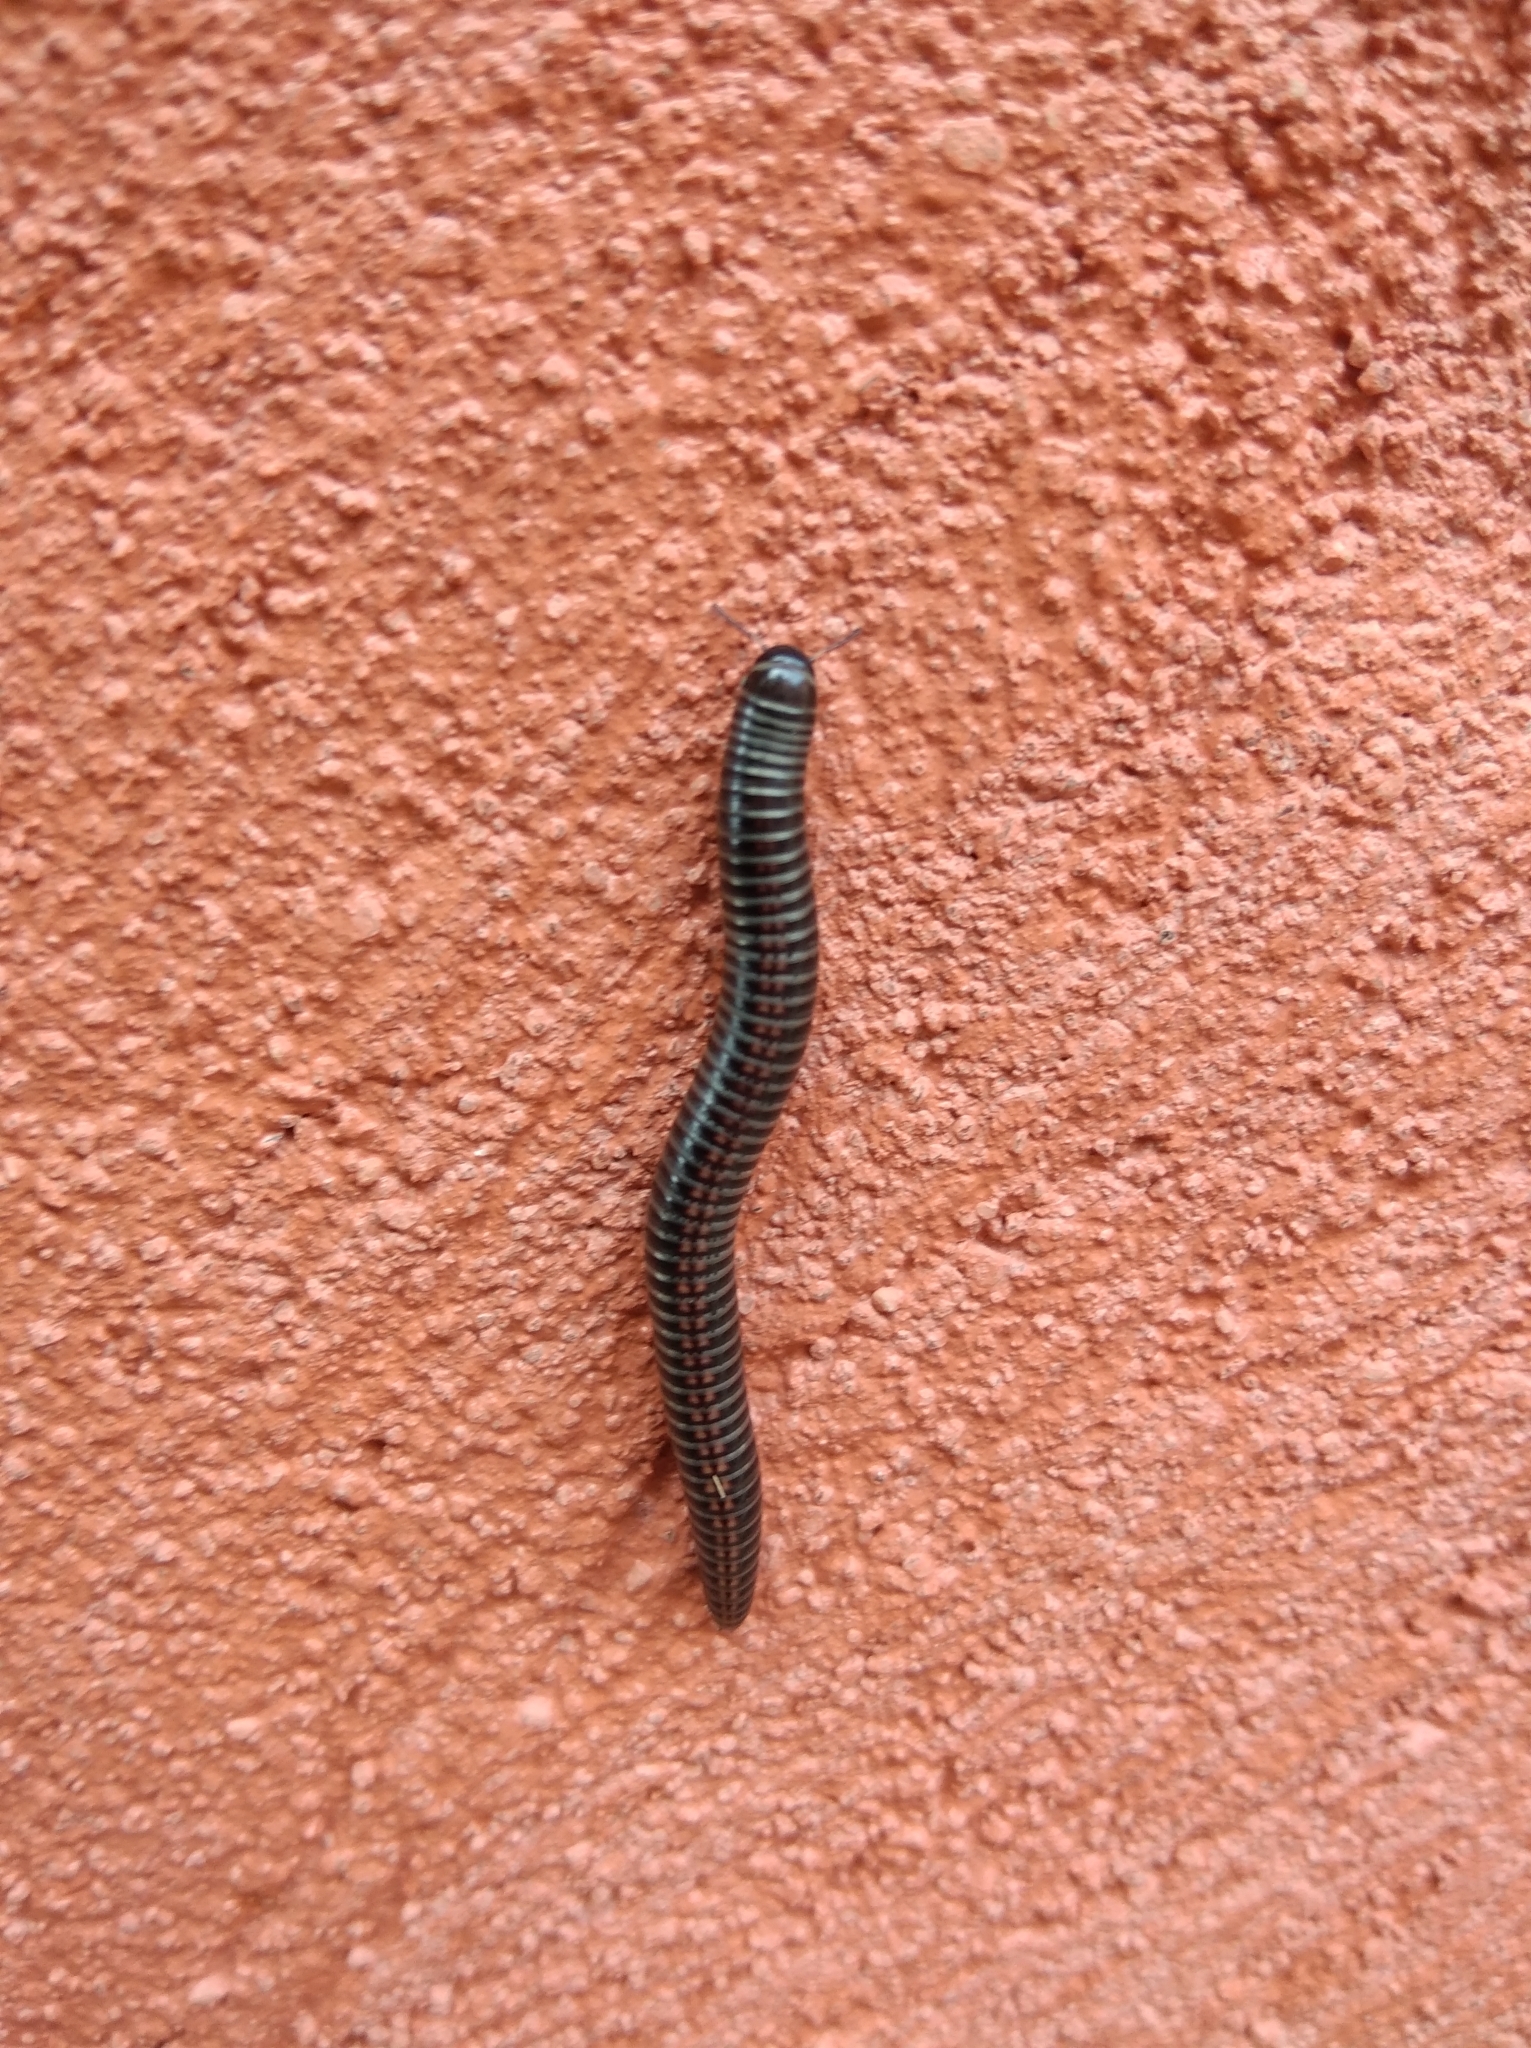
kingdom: Animalia
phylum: Arthropoda
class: Diplopoda
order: Julida
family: Julidae
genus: Ommatoiulus
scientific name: Ommatoiulus sabulosus
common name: Striped millipede
